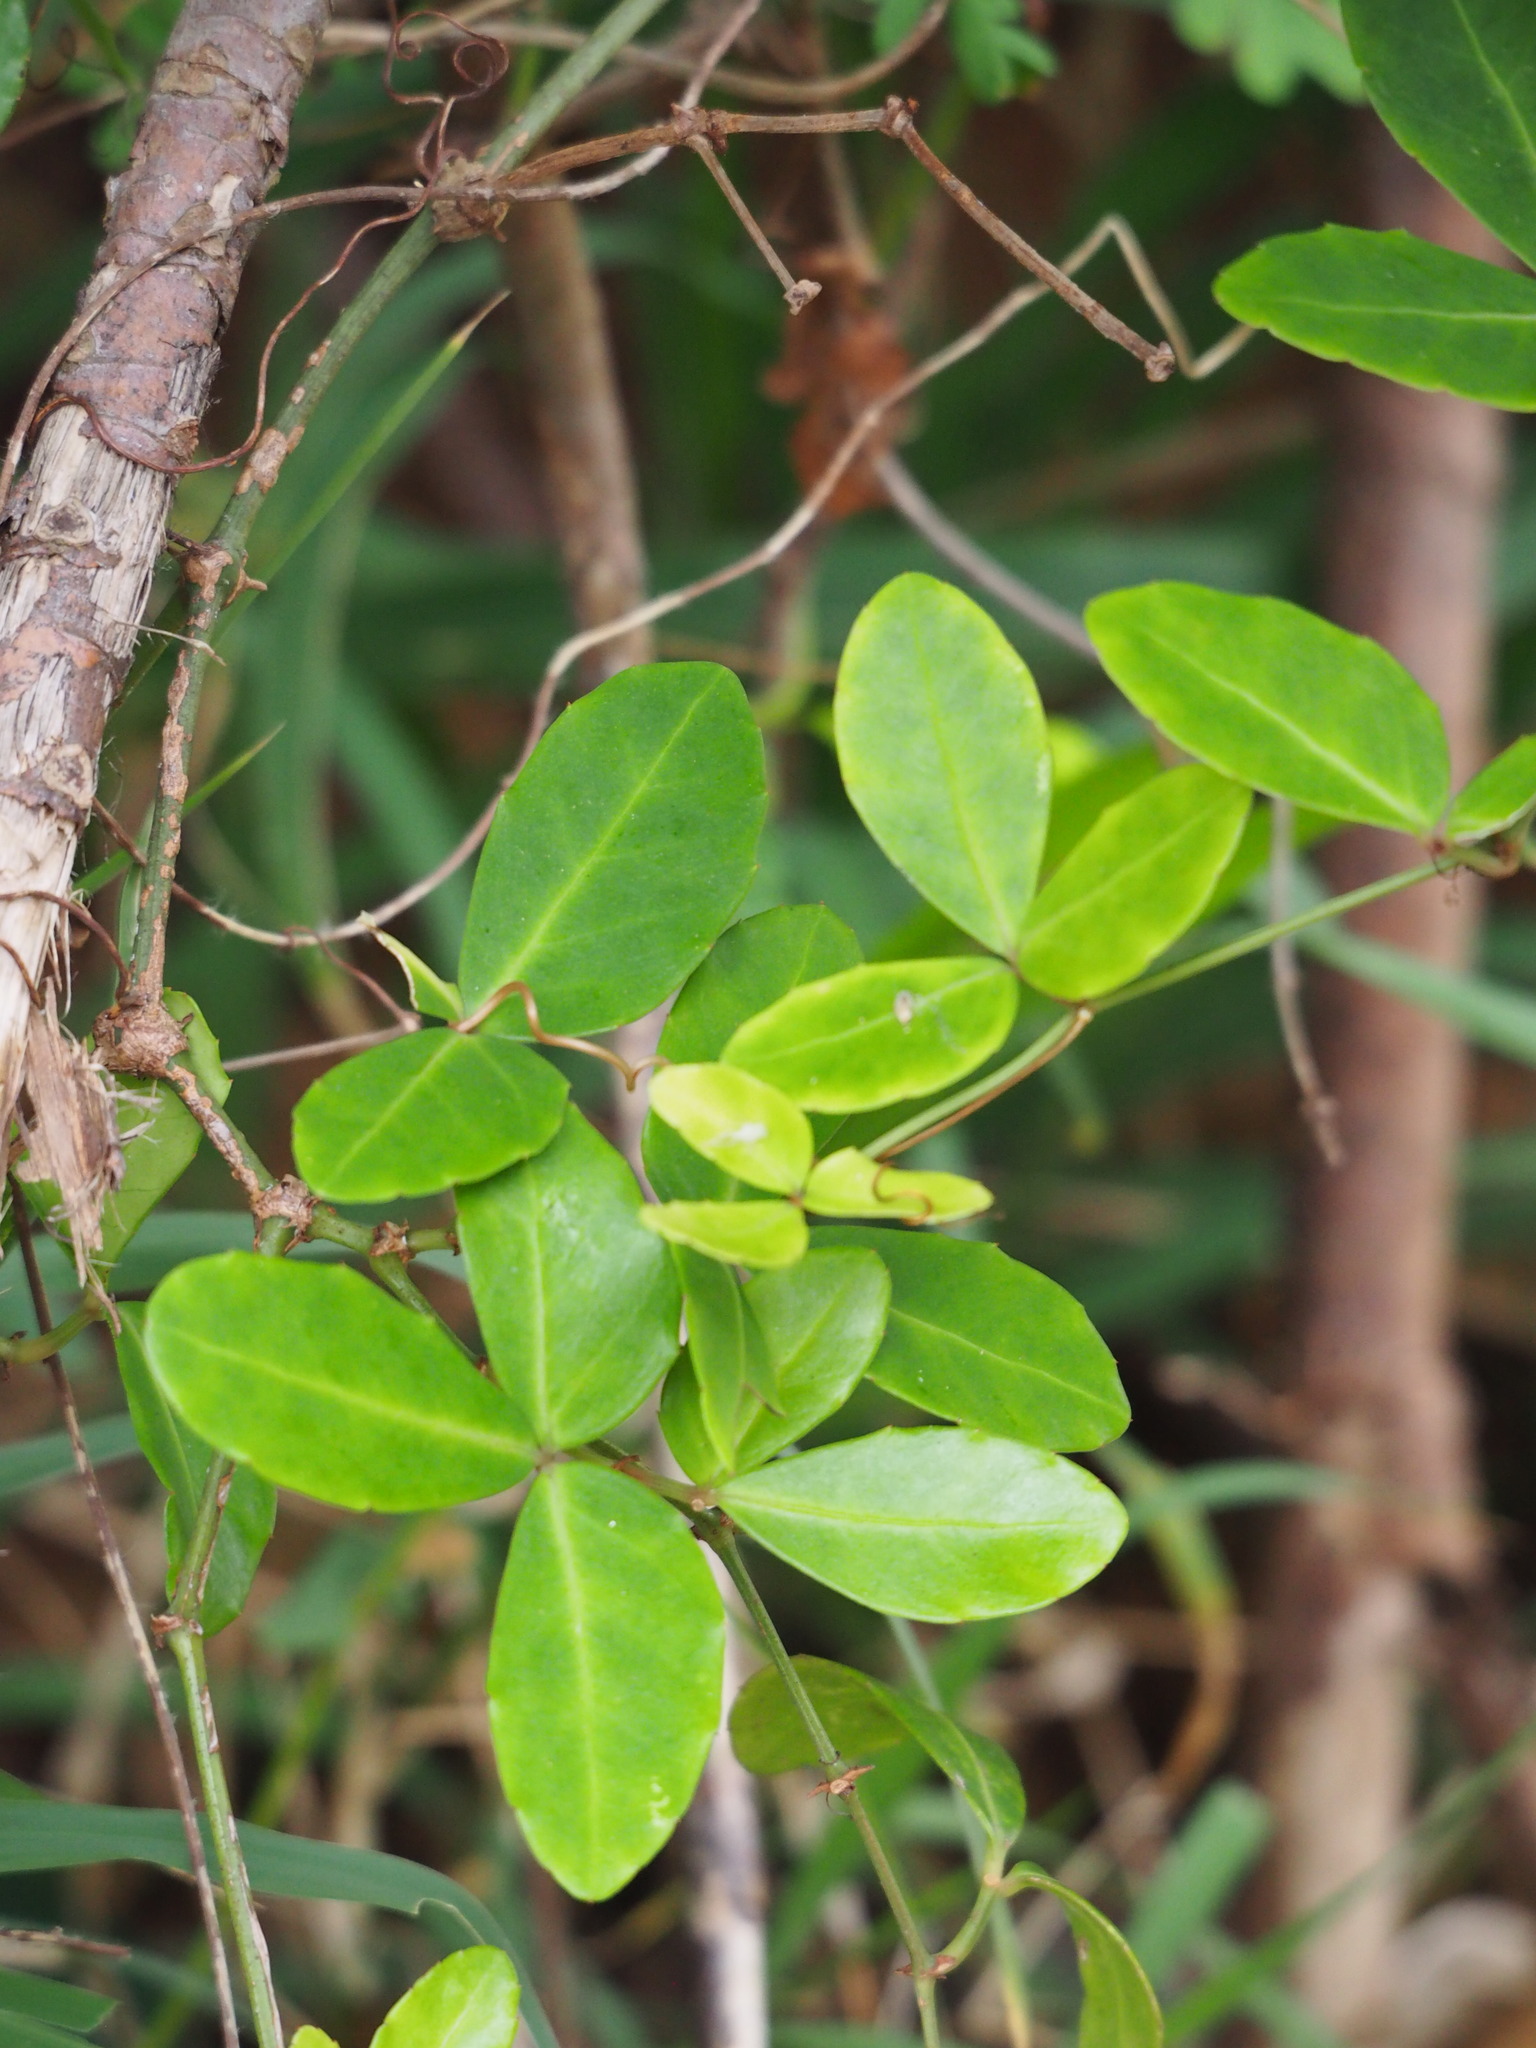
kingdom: Plantae
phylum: Tracheophyta
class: Magnoliopsida
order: Vitales
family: Vitaceae
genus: Tetrastigma
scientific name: Tetrastigma formosanum
